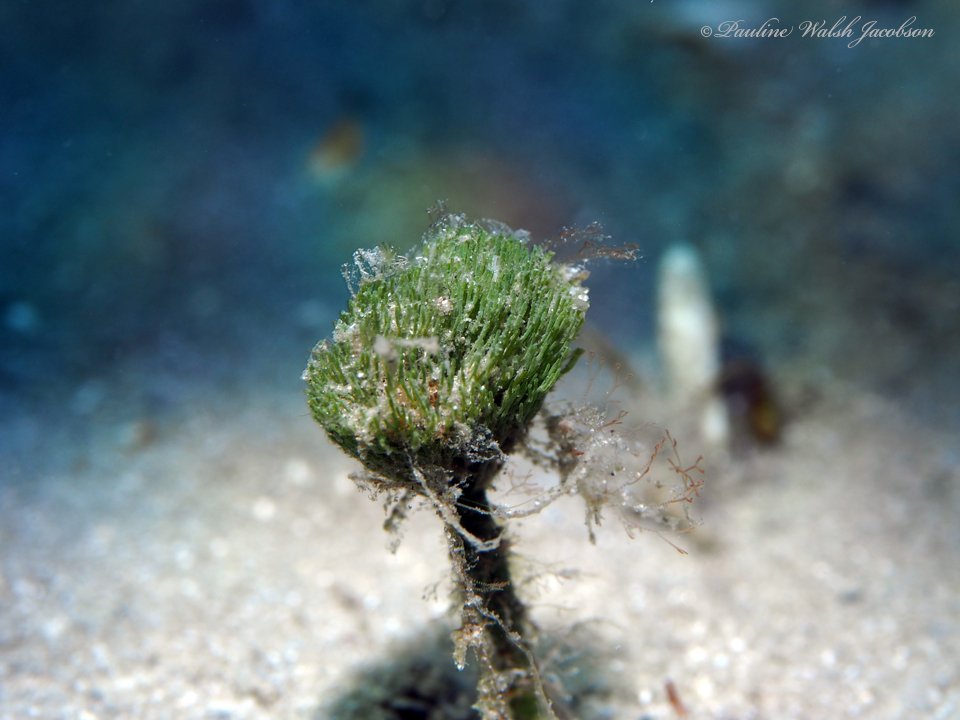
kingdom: Plantae
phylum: Chlorophyta
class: Ulvophyceae
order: Bryopsidales
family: Udoteaceae
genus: Penicillus
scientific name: Penicillus dumetosus
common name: Bristle ball bush
